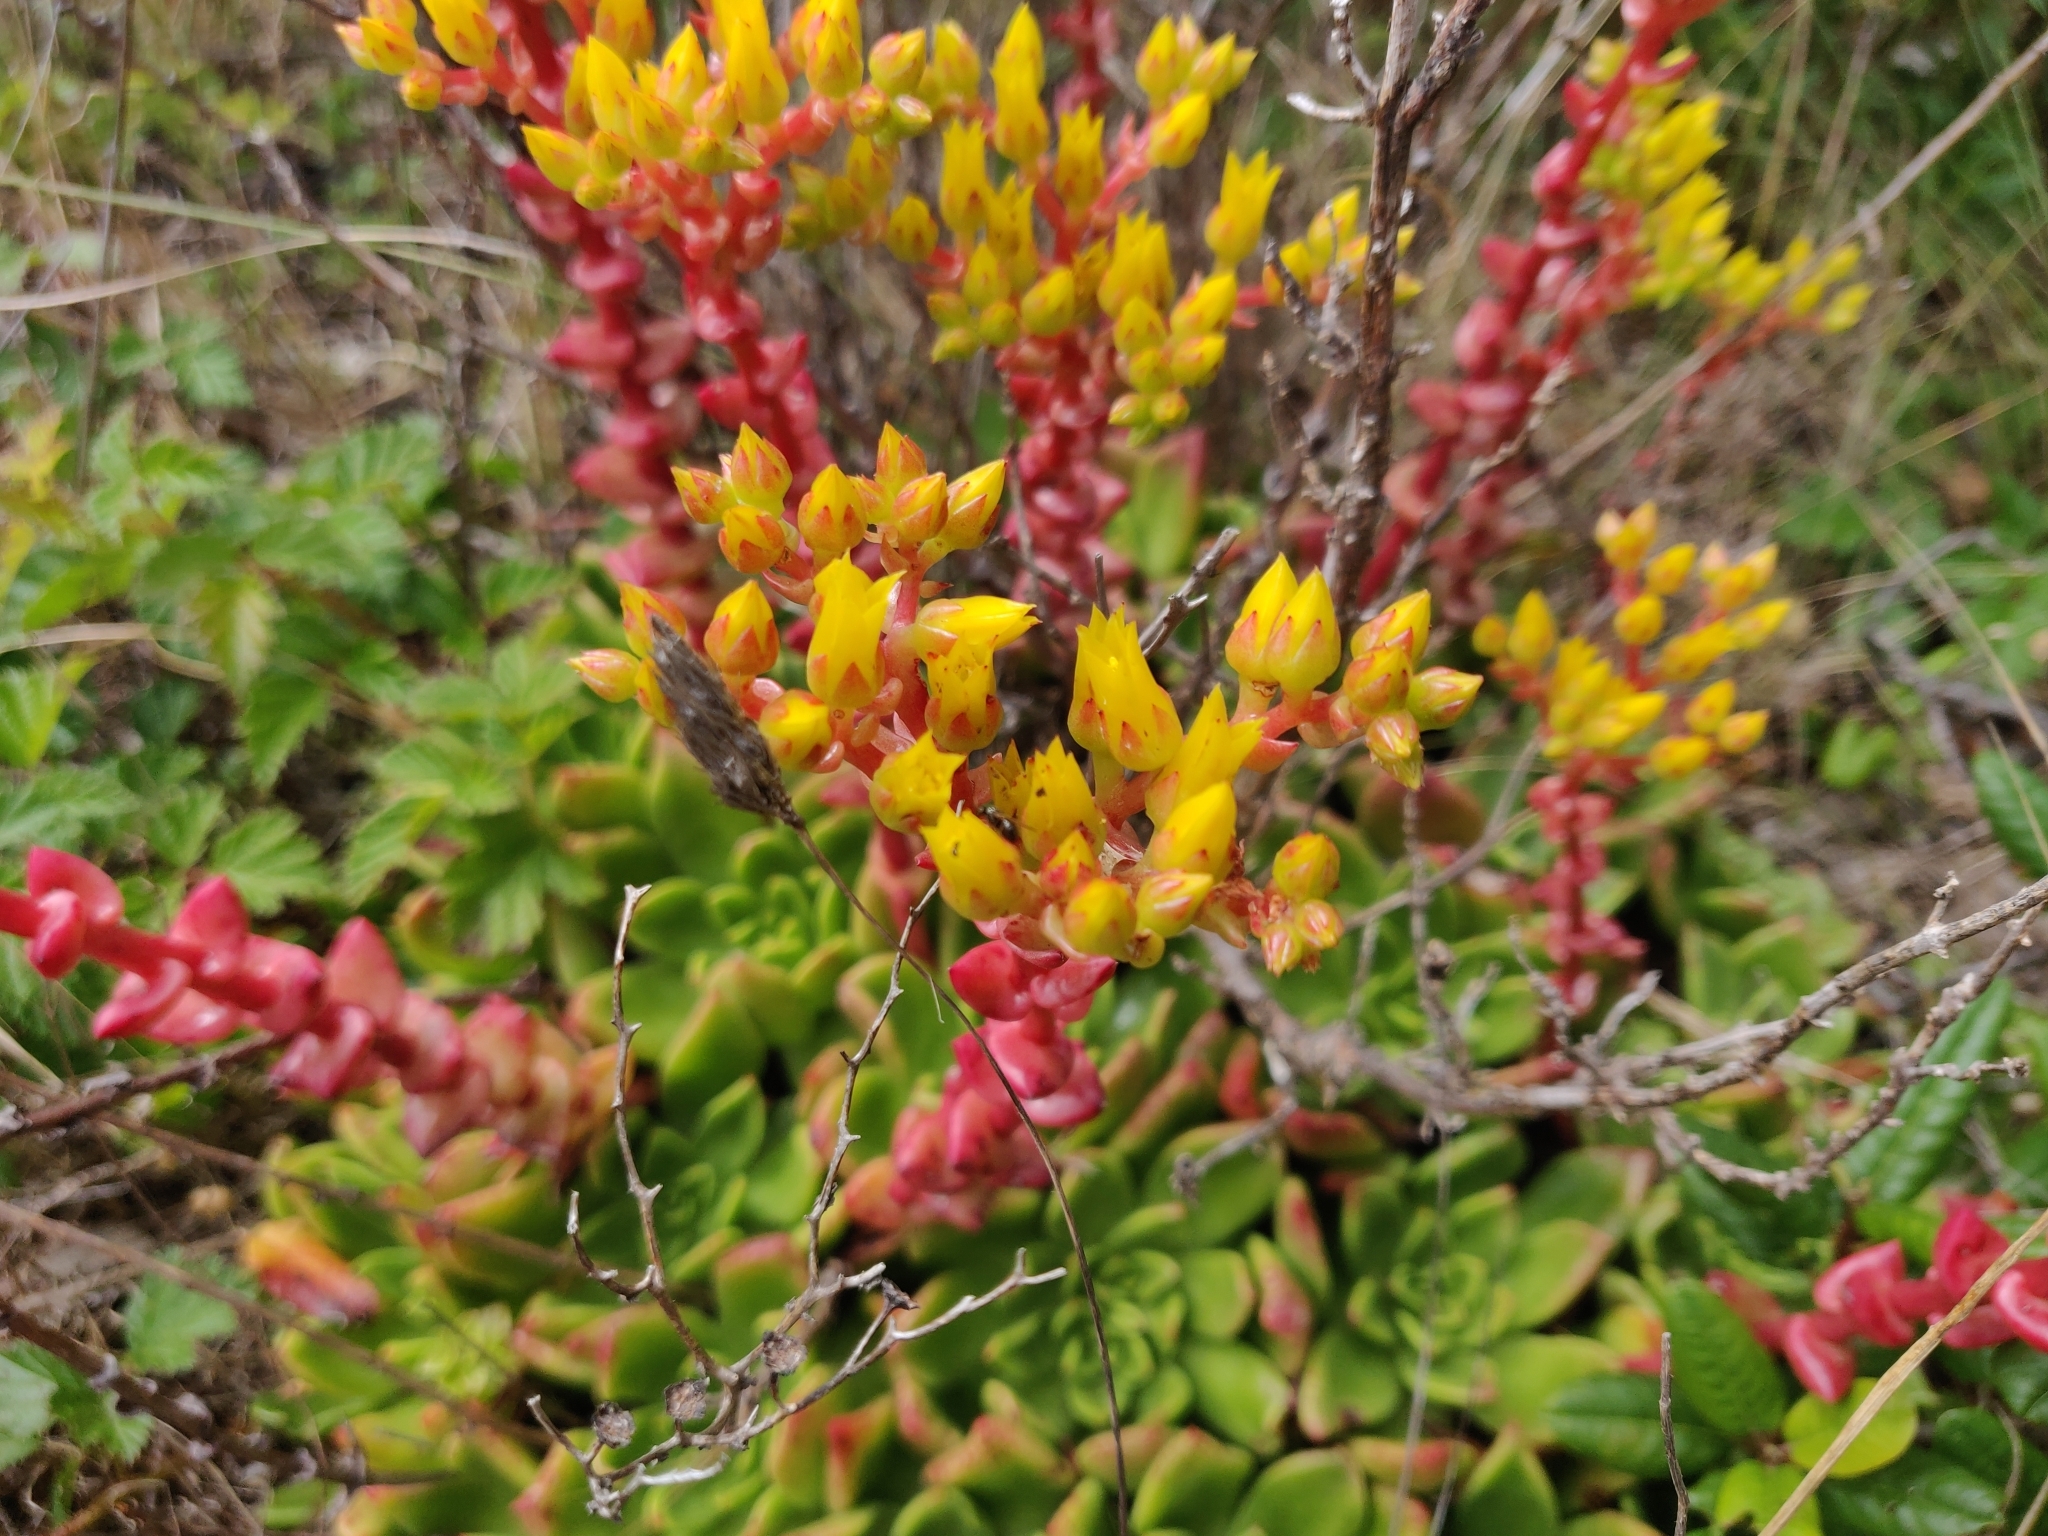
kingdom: Plantae
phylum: Tracheophyta
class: Magnoliopsida
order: Saxifragales
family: Crassulaceae
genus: Dudleya
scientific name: Dudleya caespitosa
